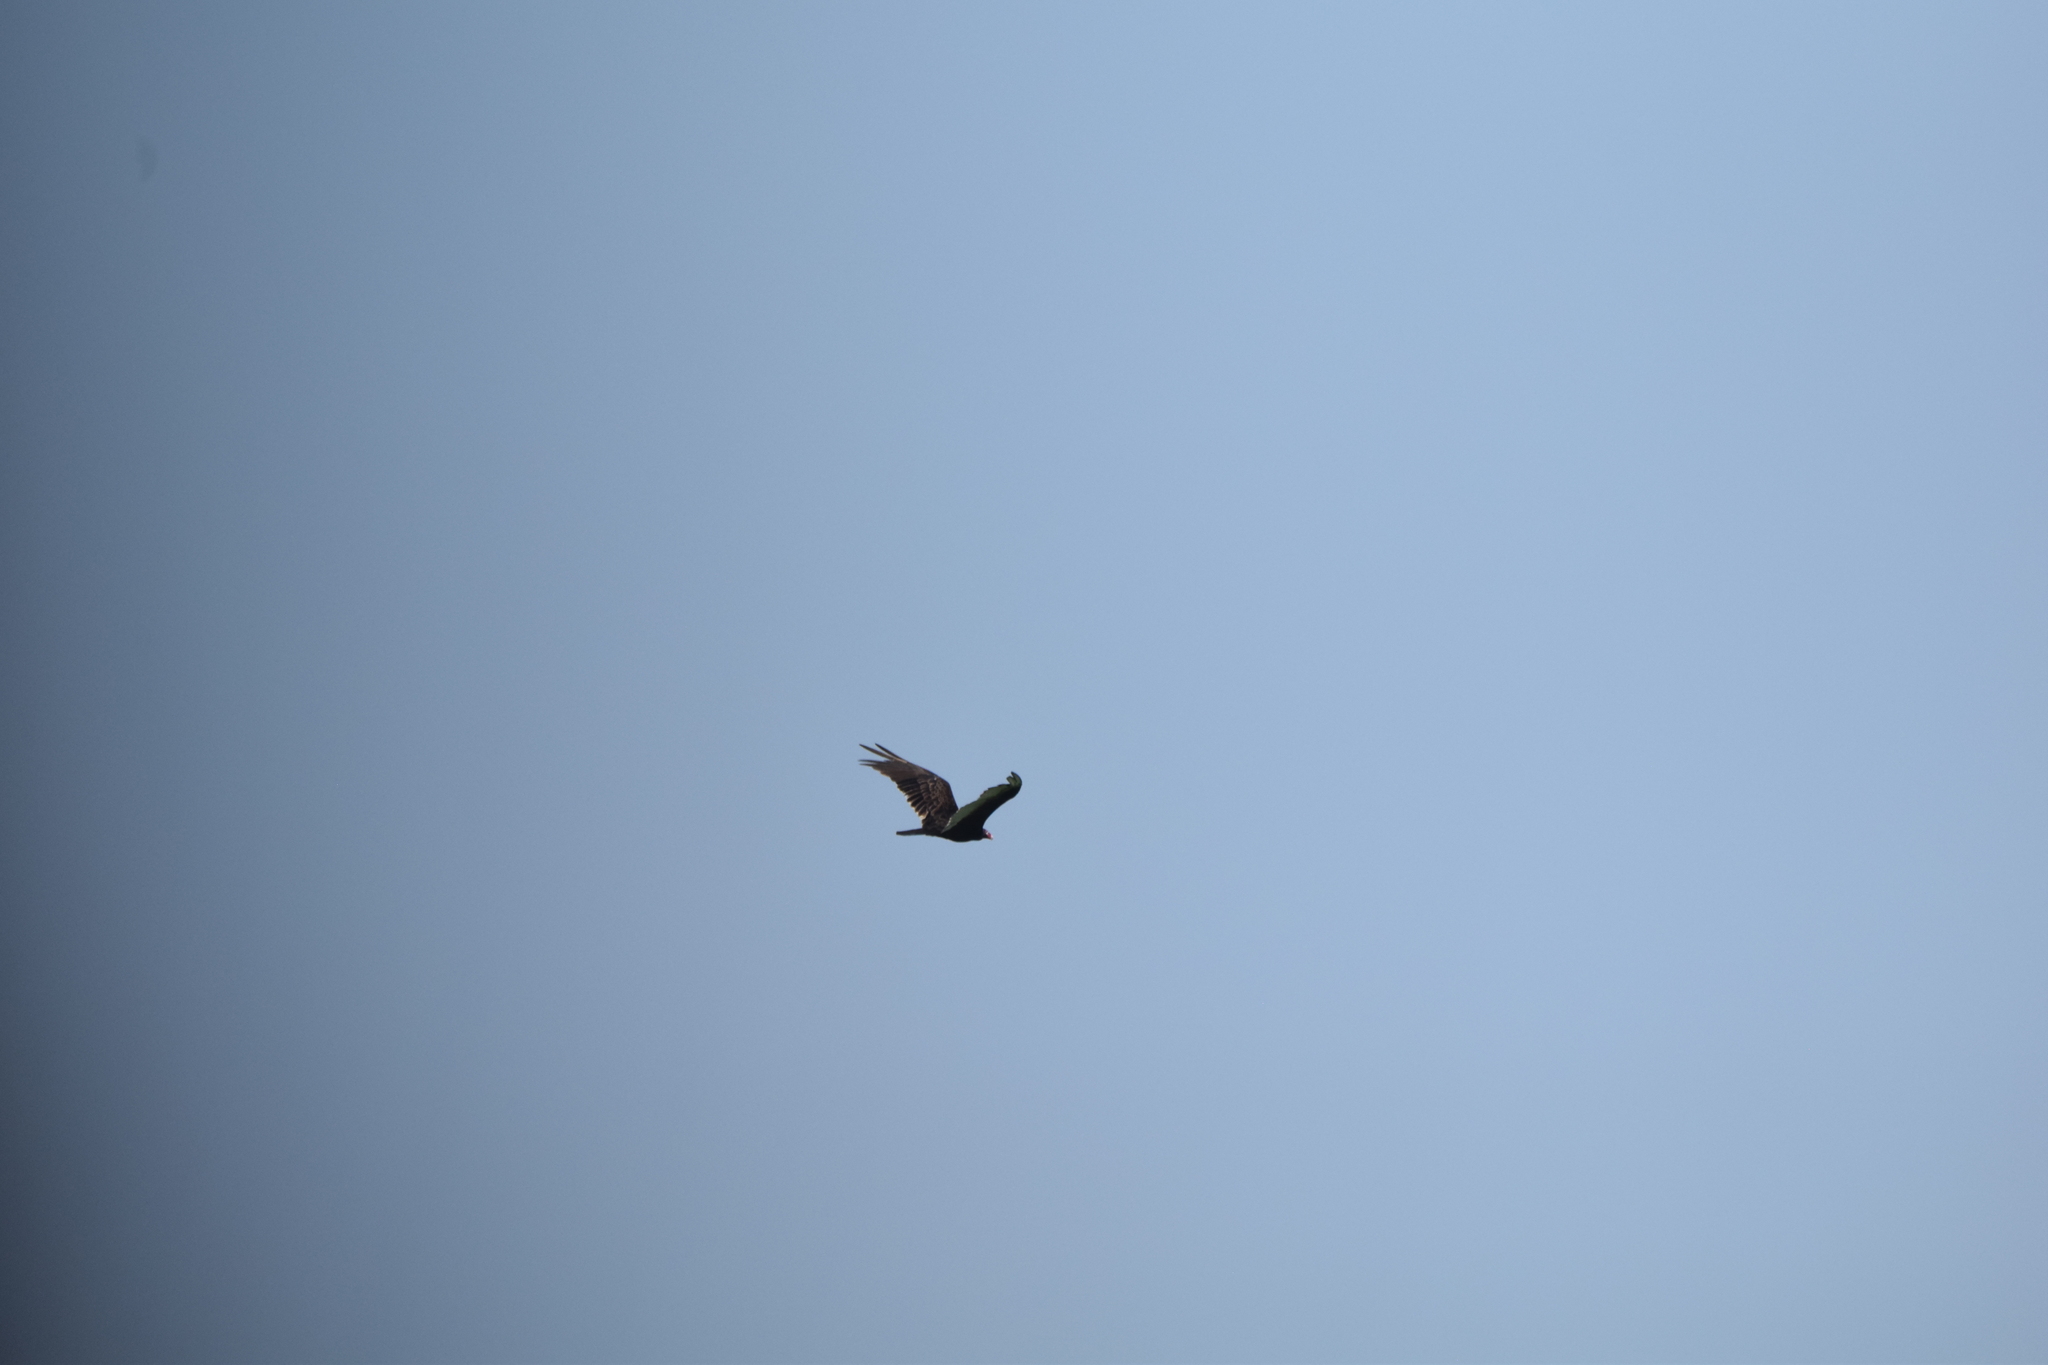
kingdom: Animalia
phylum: Chordata
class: Aves
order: Accipitriformes
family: Cathartidae
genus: Cathartes
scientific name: Cathartes aura
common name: Turkey vulture
